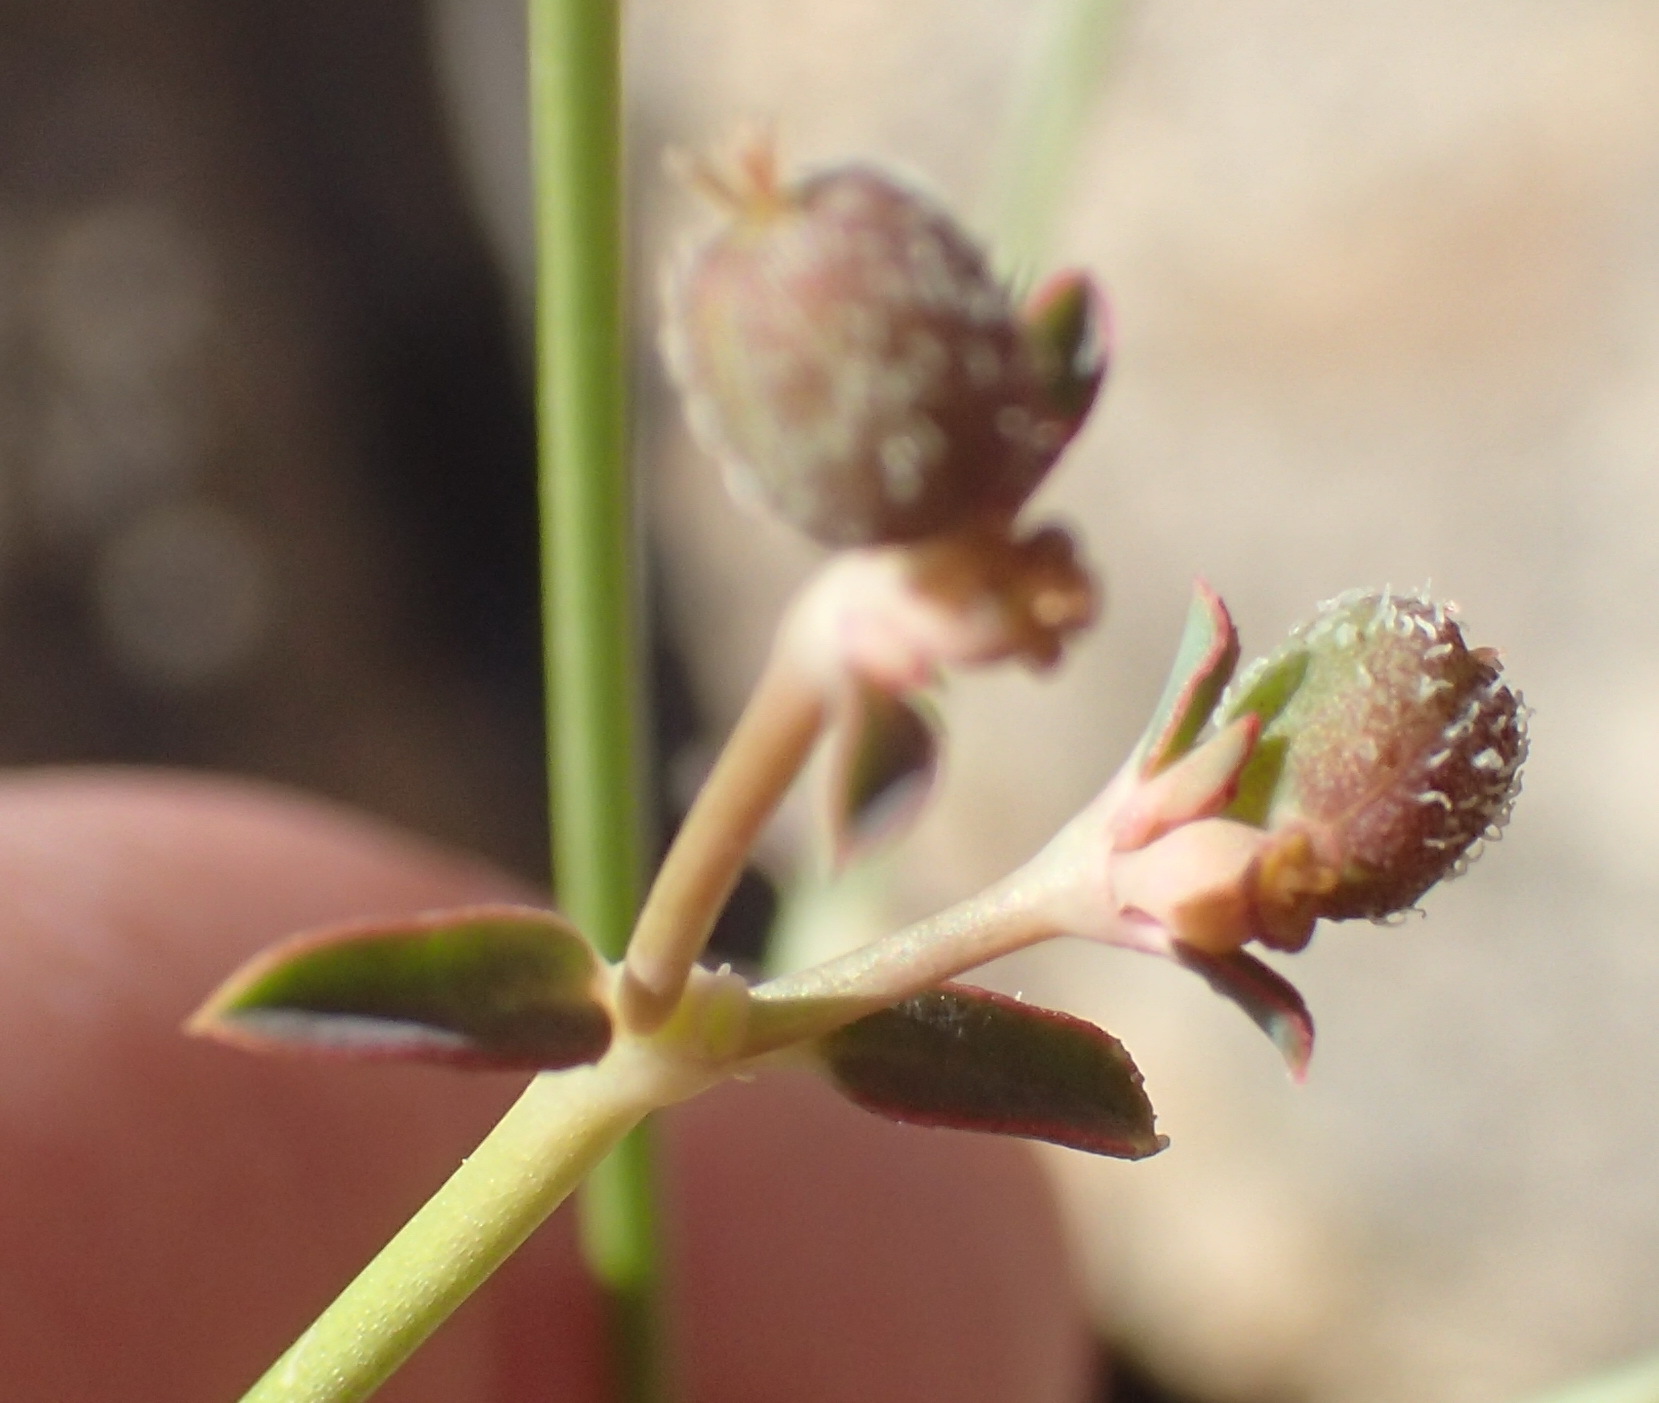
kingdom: Plantae
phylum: Tracheophyta
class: Magnoliopsida
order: Malpighiales
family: Euphorbiaceae
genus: Euphorbia
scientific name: Euphorbia glanduligera
